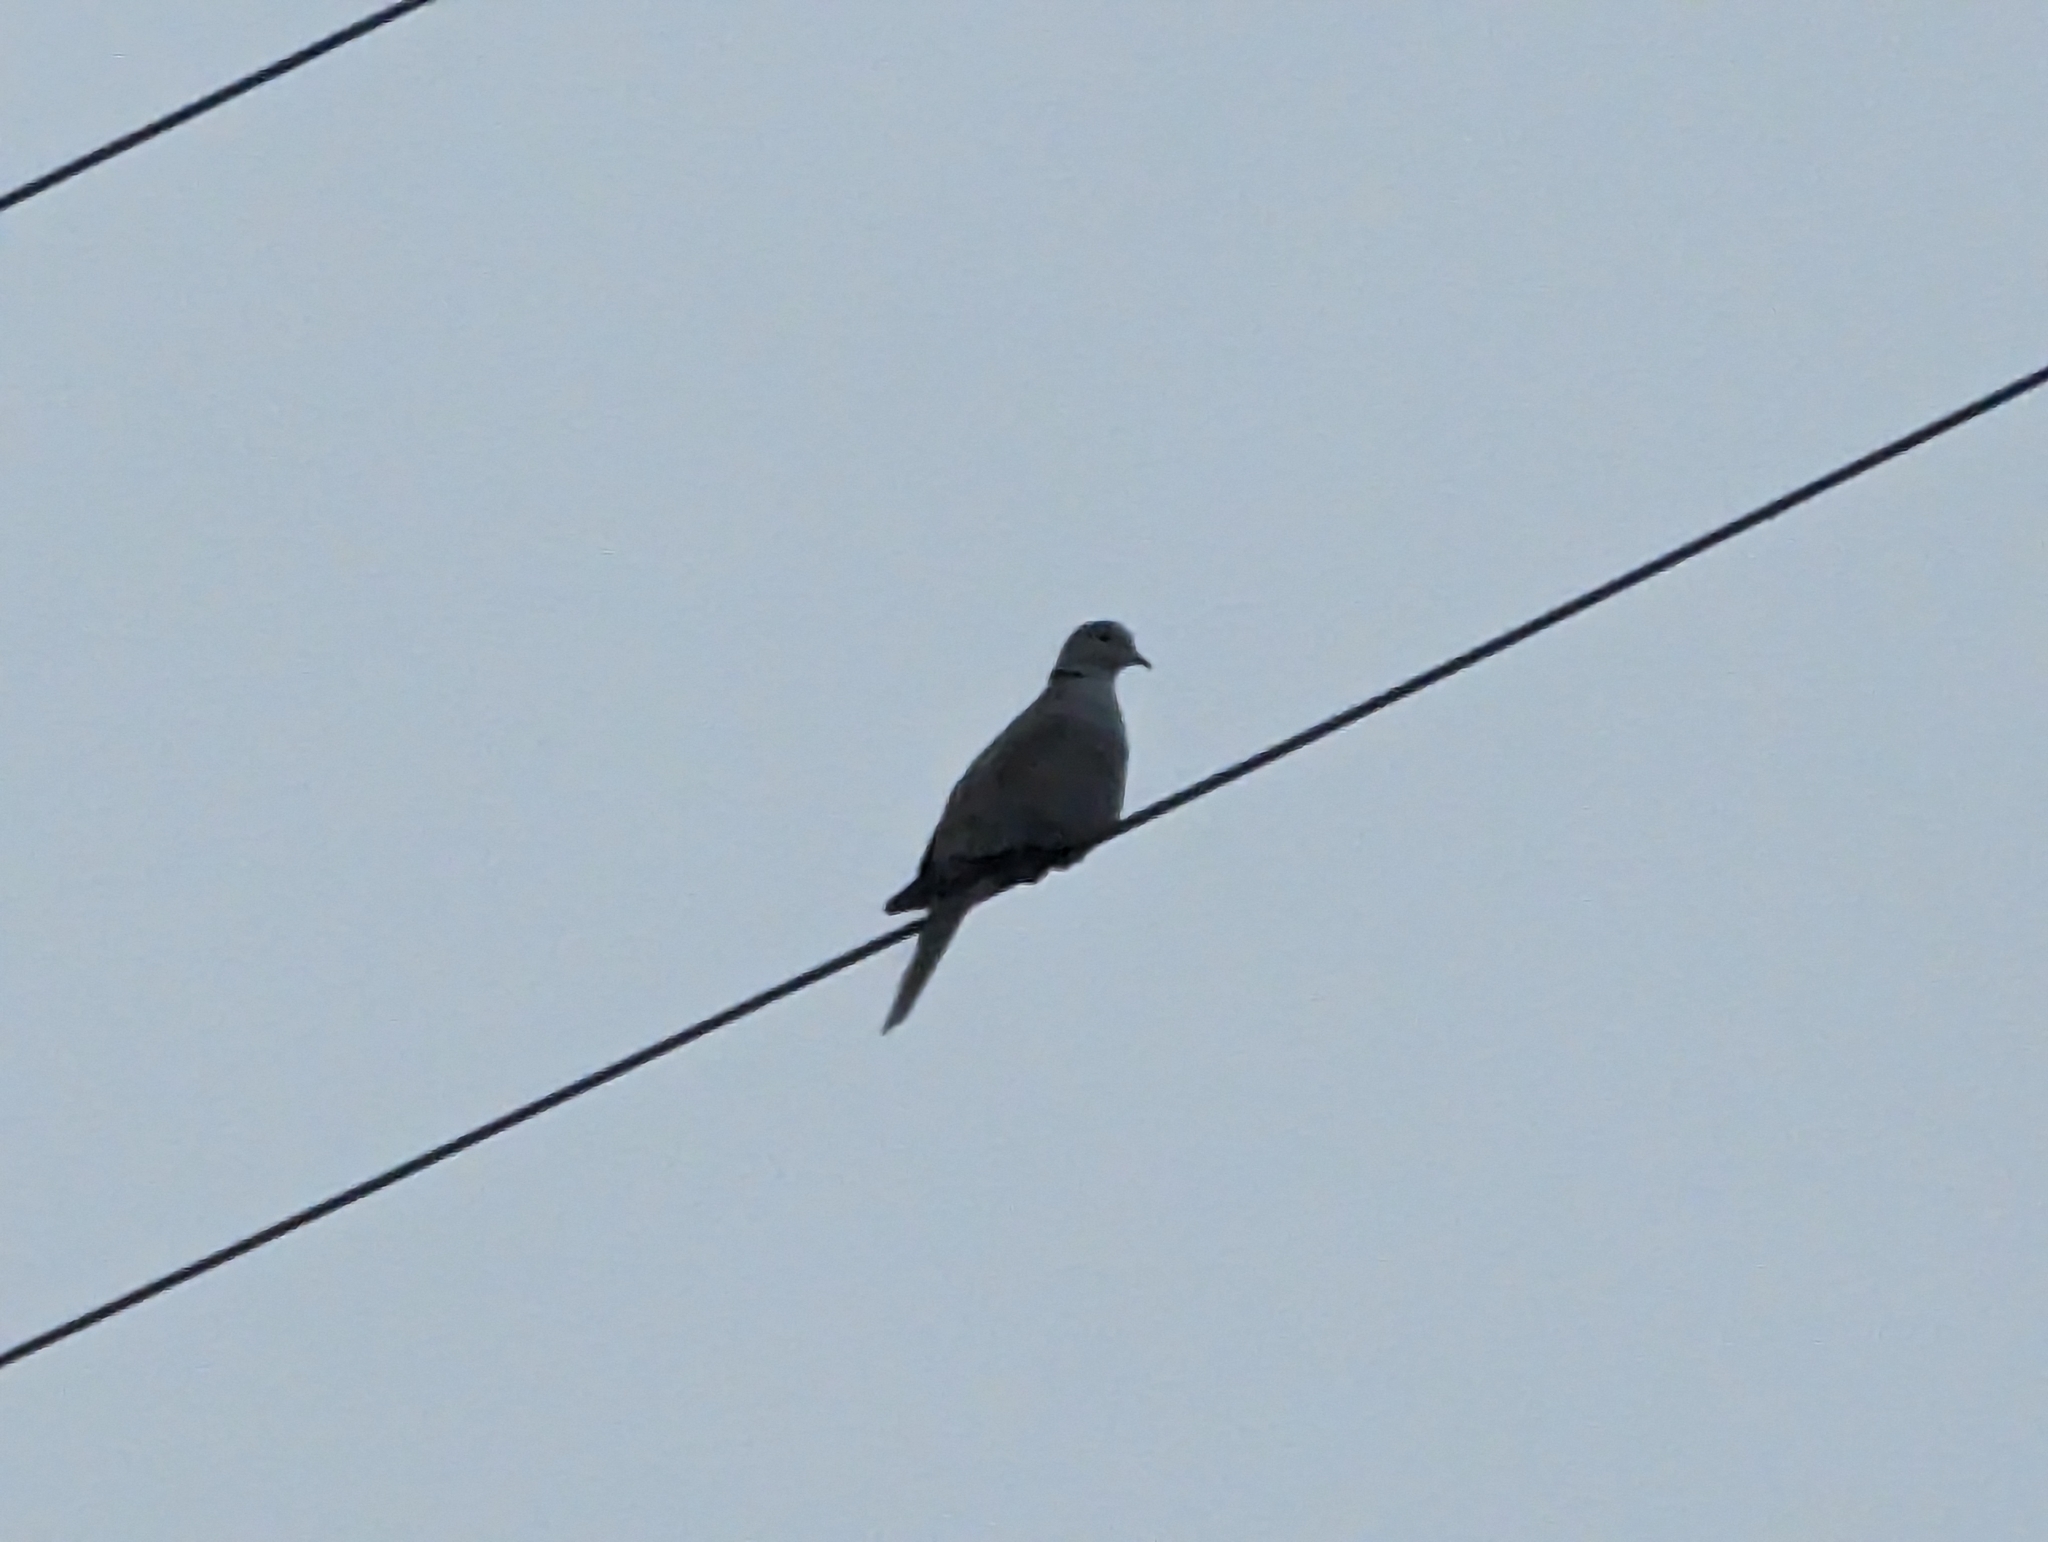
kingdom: Animalia
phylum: Chordata
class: Aves
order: Columbiformes
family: Columbidae
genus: Streptopelia
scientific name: Streptopelia decaocto
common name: Eurasian collared dove
